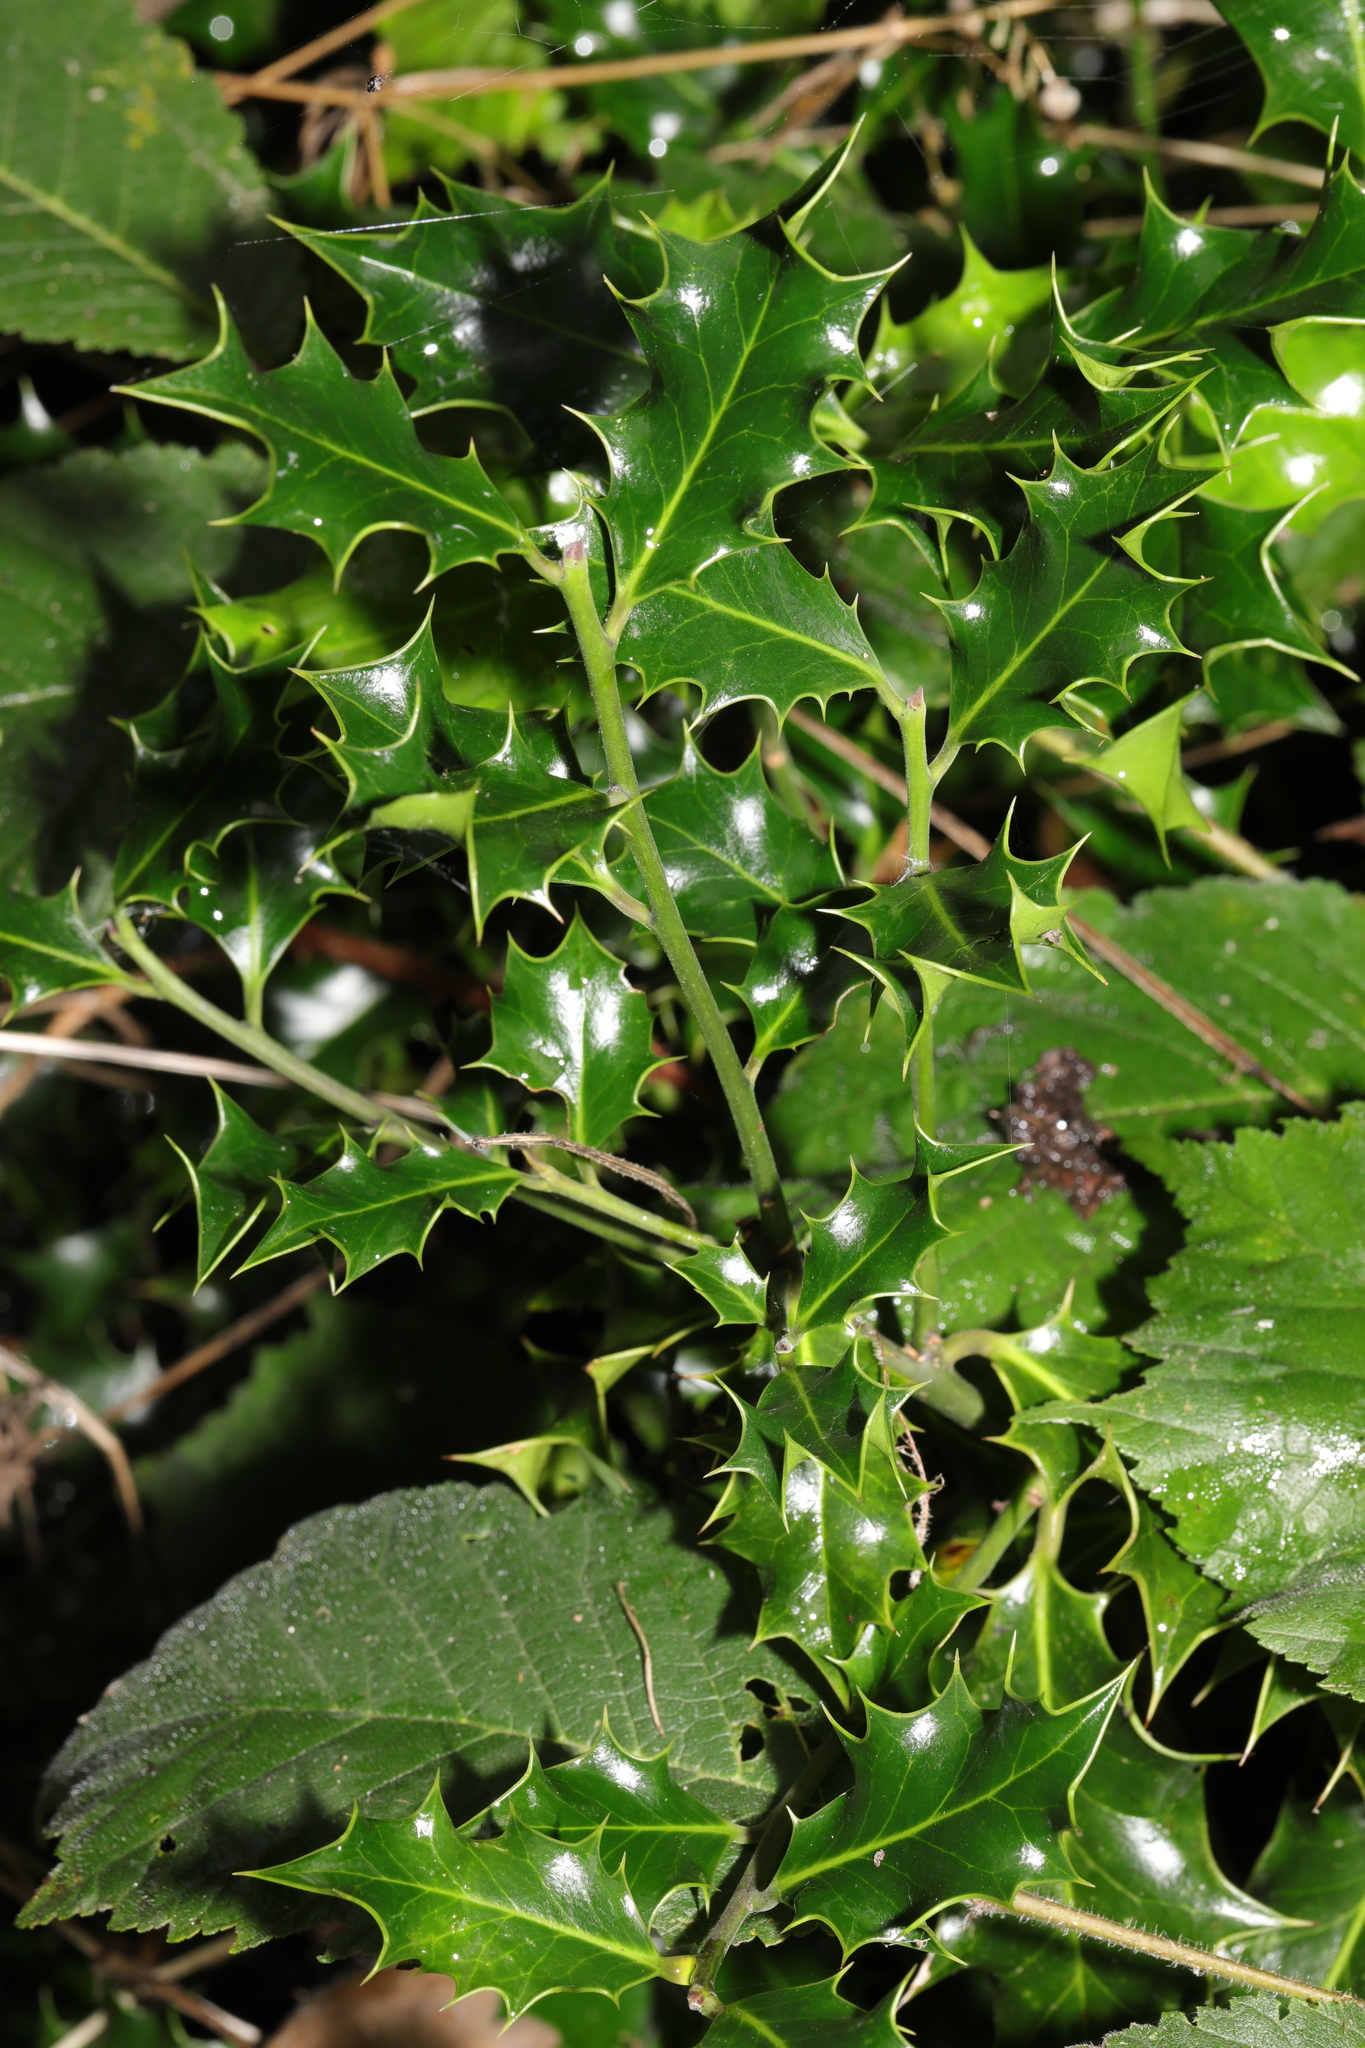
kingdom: Plantae
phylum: Tracheophyta
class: Magnoliopsida
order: Aquifoliales
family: Aquifoliaceae
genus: Ilex
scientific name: Ilex aquifolium
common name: English holly
